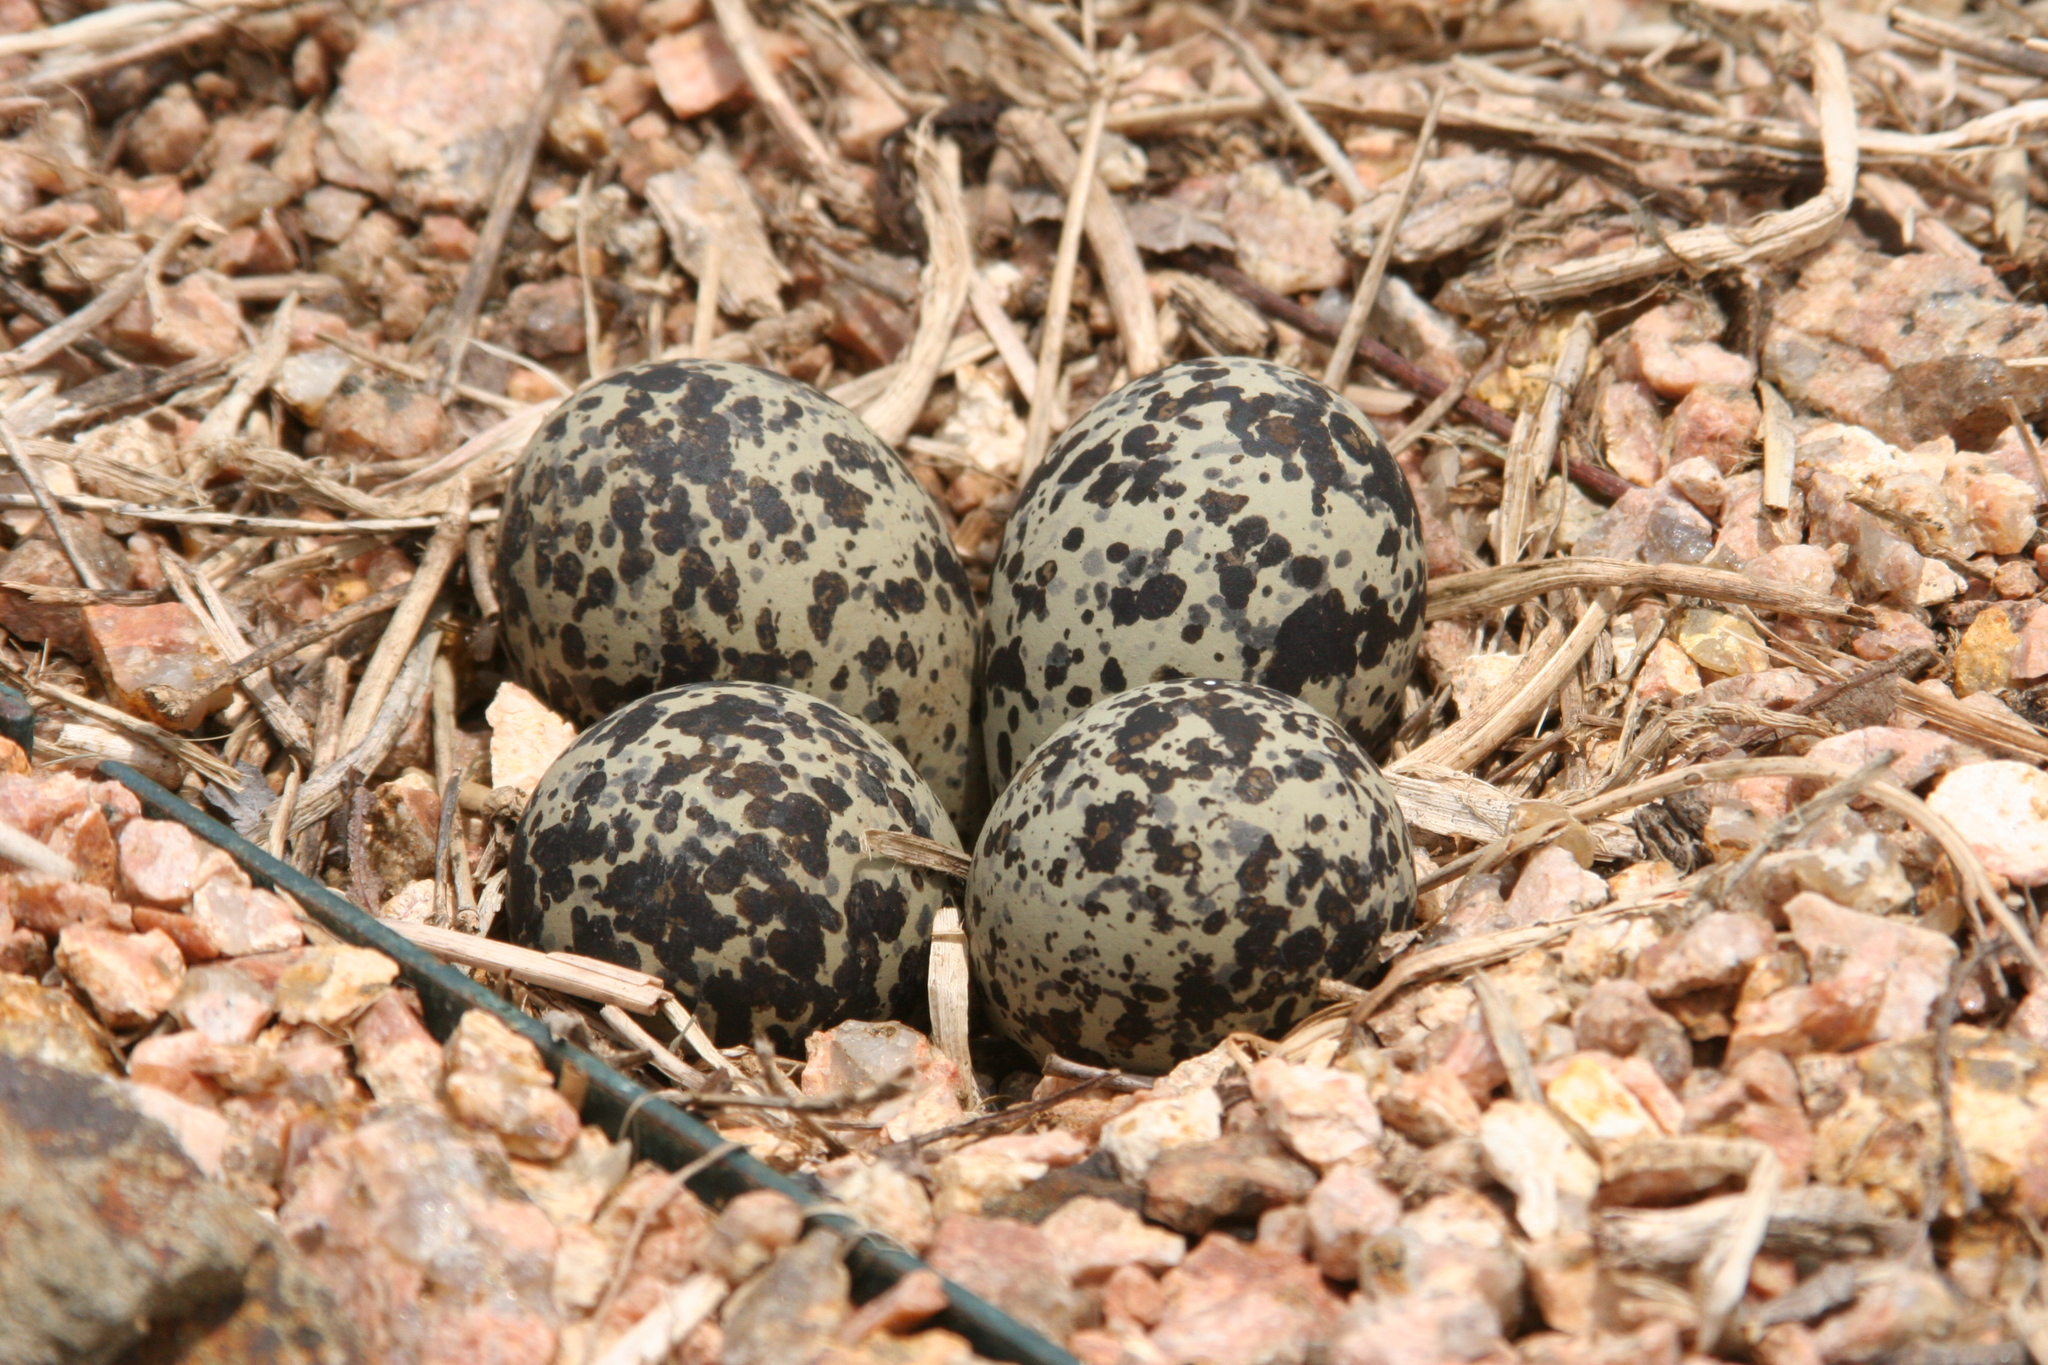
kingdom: Animalia
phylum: Chordata
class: Aves
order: Charadriiformes
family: Charadriidae
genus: Charadrius
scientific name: Charadrius vociferus
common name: Killdeer
